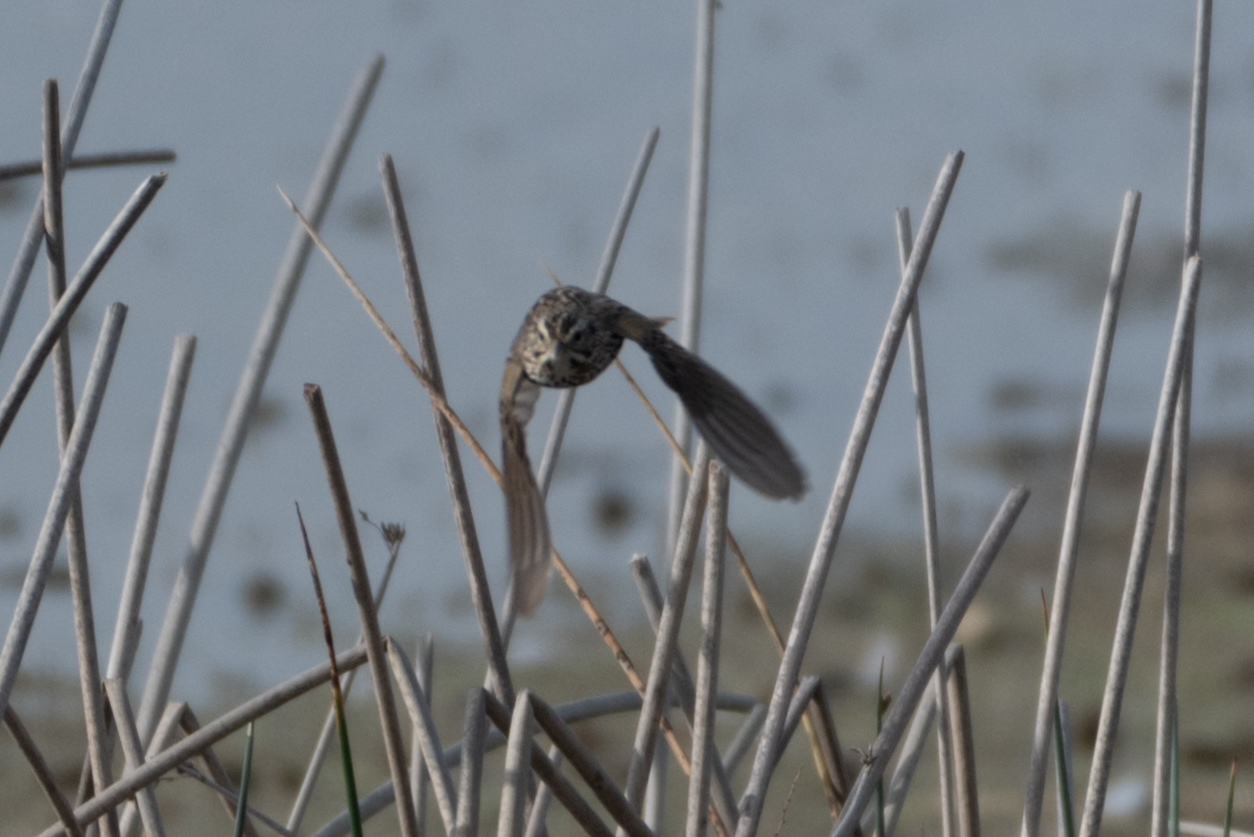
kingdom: Animalia
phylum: Chordata
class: Aves
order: Passeriformes
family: Passerellidae
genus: Melospiza
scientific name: Melospiza melodia
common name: Song sparrow
